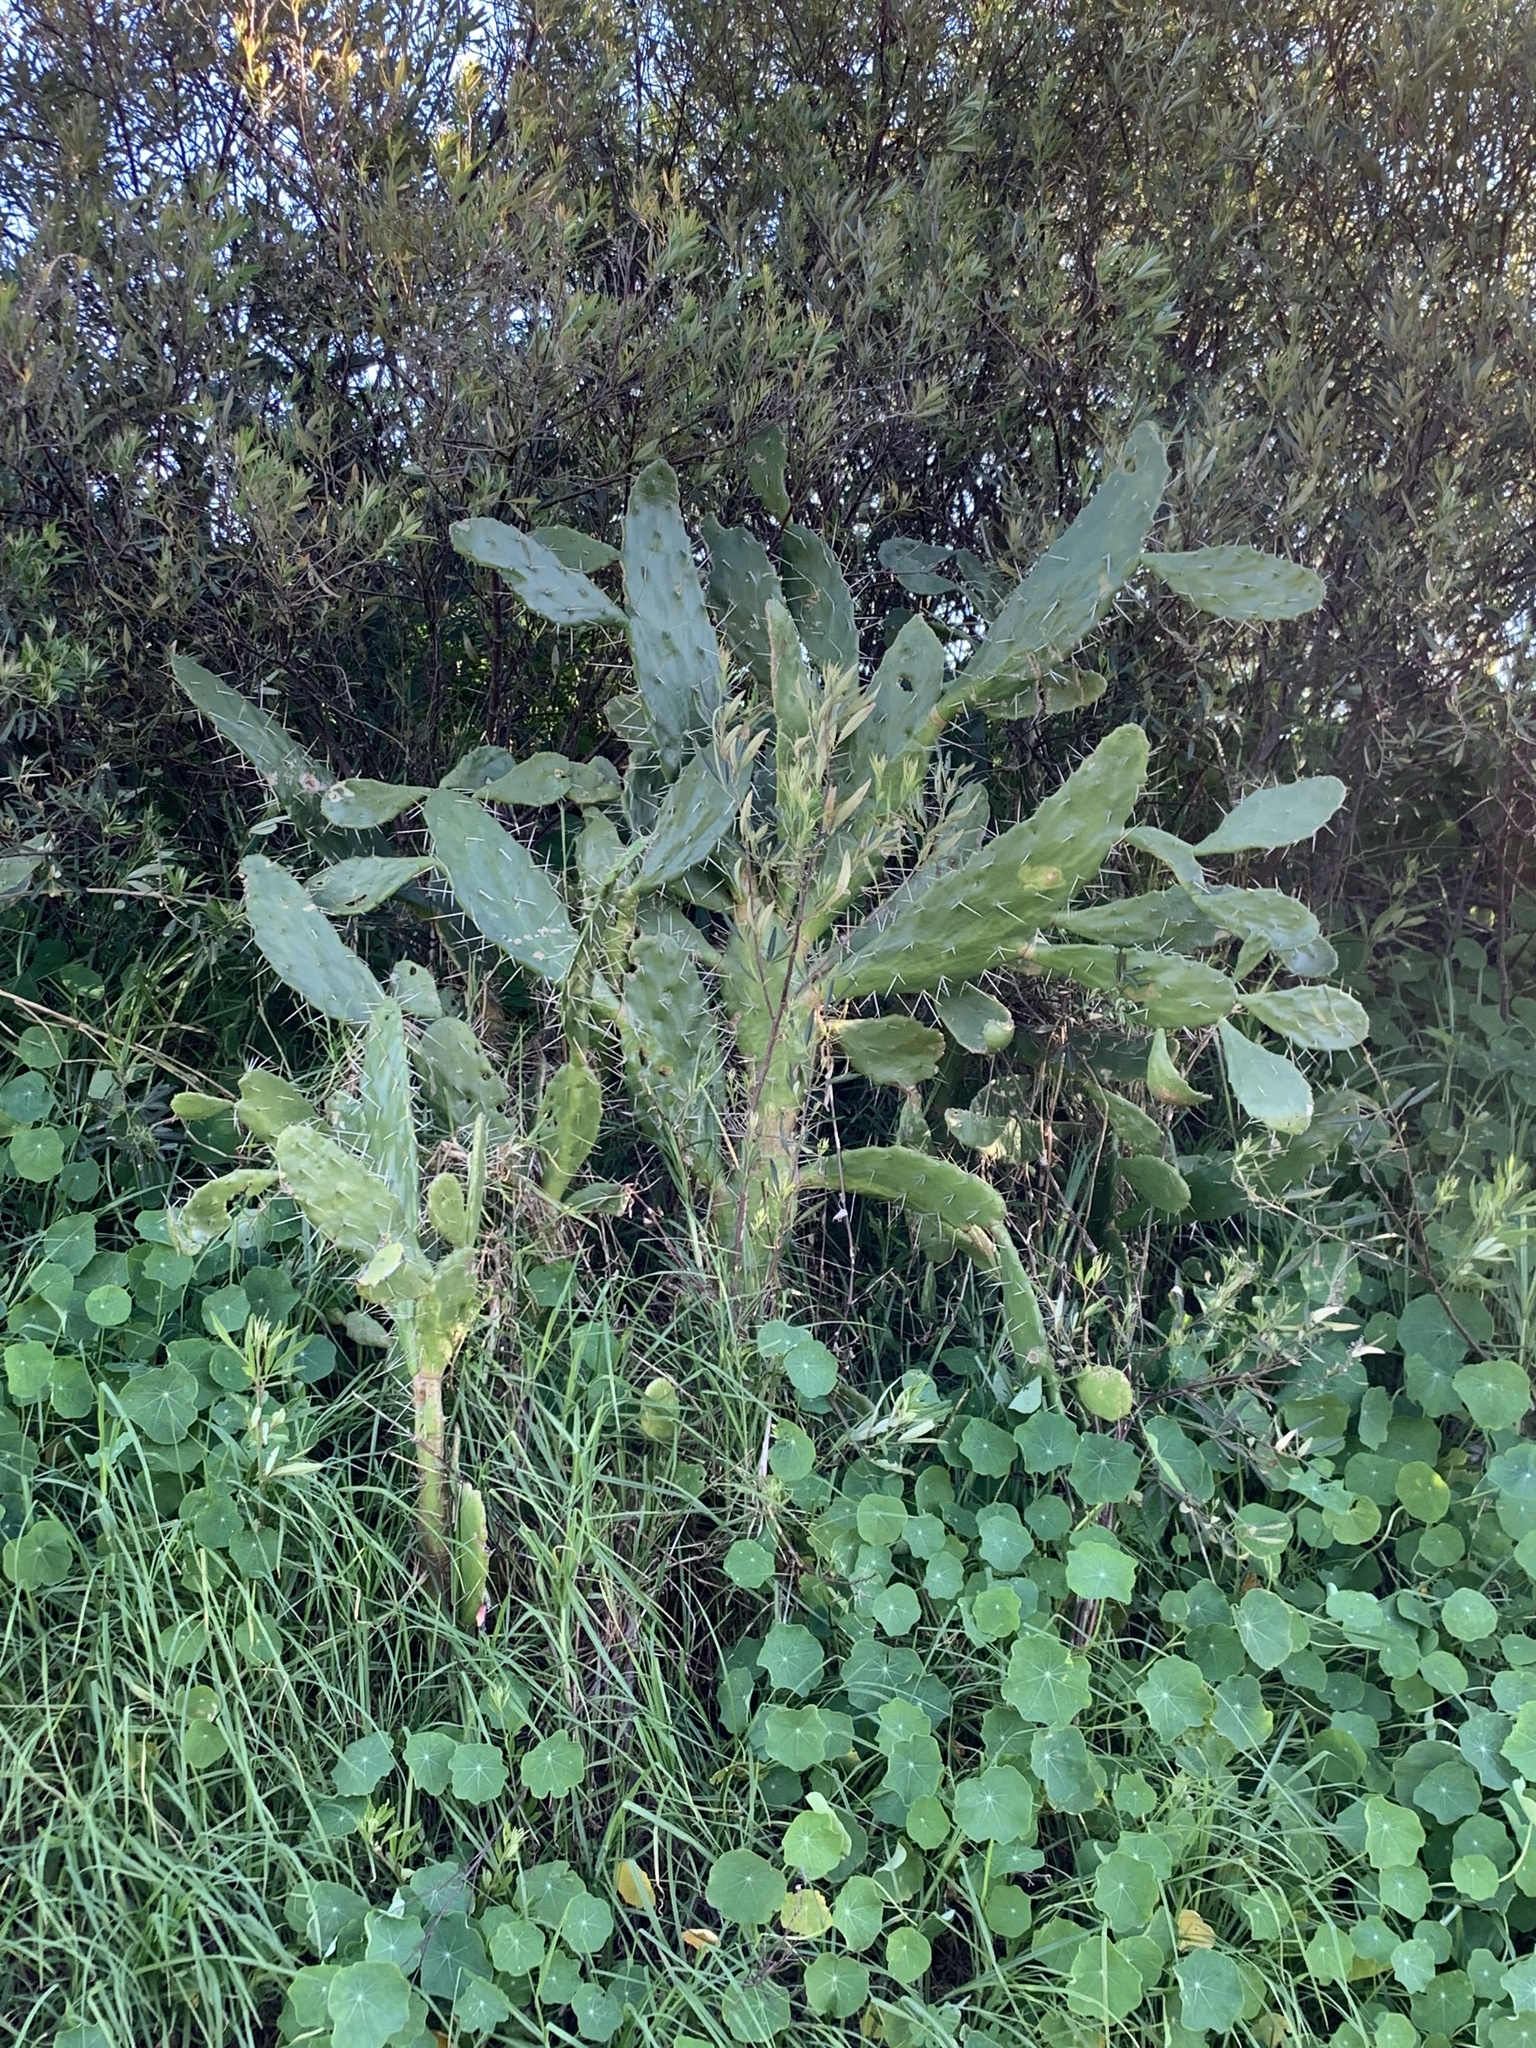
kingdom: Plantae
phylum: Tracheophyta
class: Magnoliopsida
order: Caryophyllales
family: Cactaceae
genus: Opuntia
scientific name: Opuntia monacantha
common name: Common pricklypear
